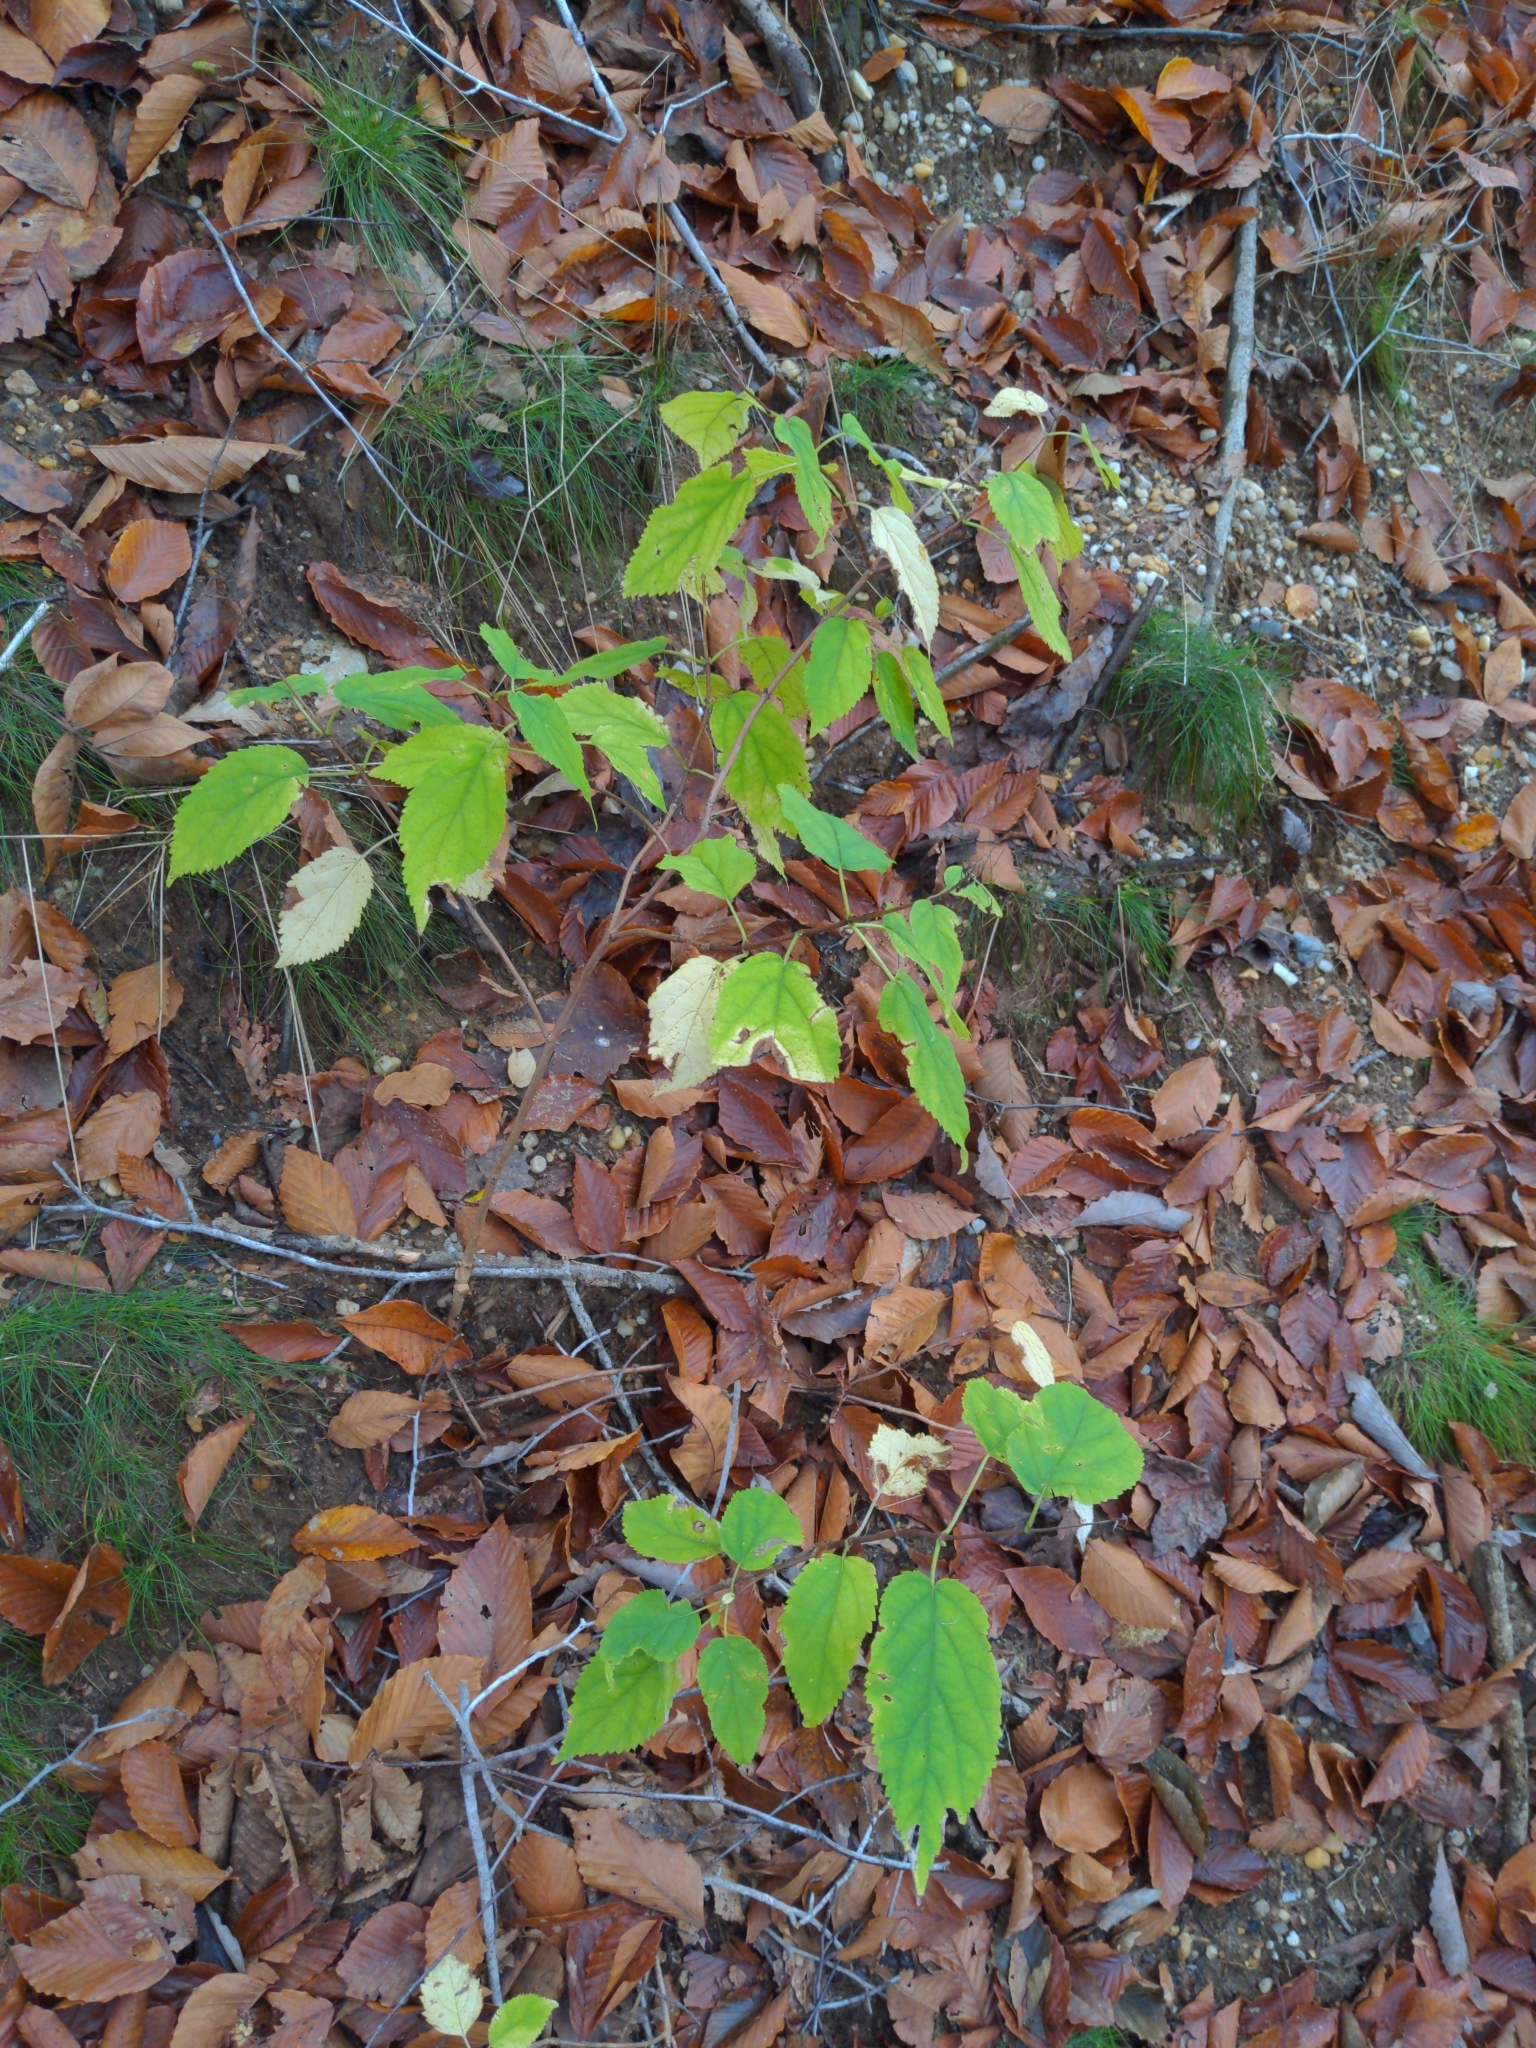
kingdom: Plantae
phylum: Tracheophyta
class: Magnoliopsida
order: Cornales
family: Hydrangeaceae
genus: Hydrangea
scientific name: Hydrangea arborescens
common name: Sevenbark
